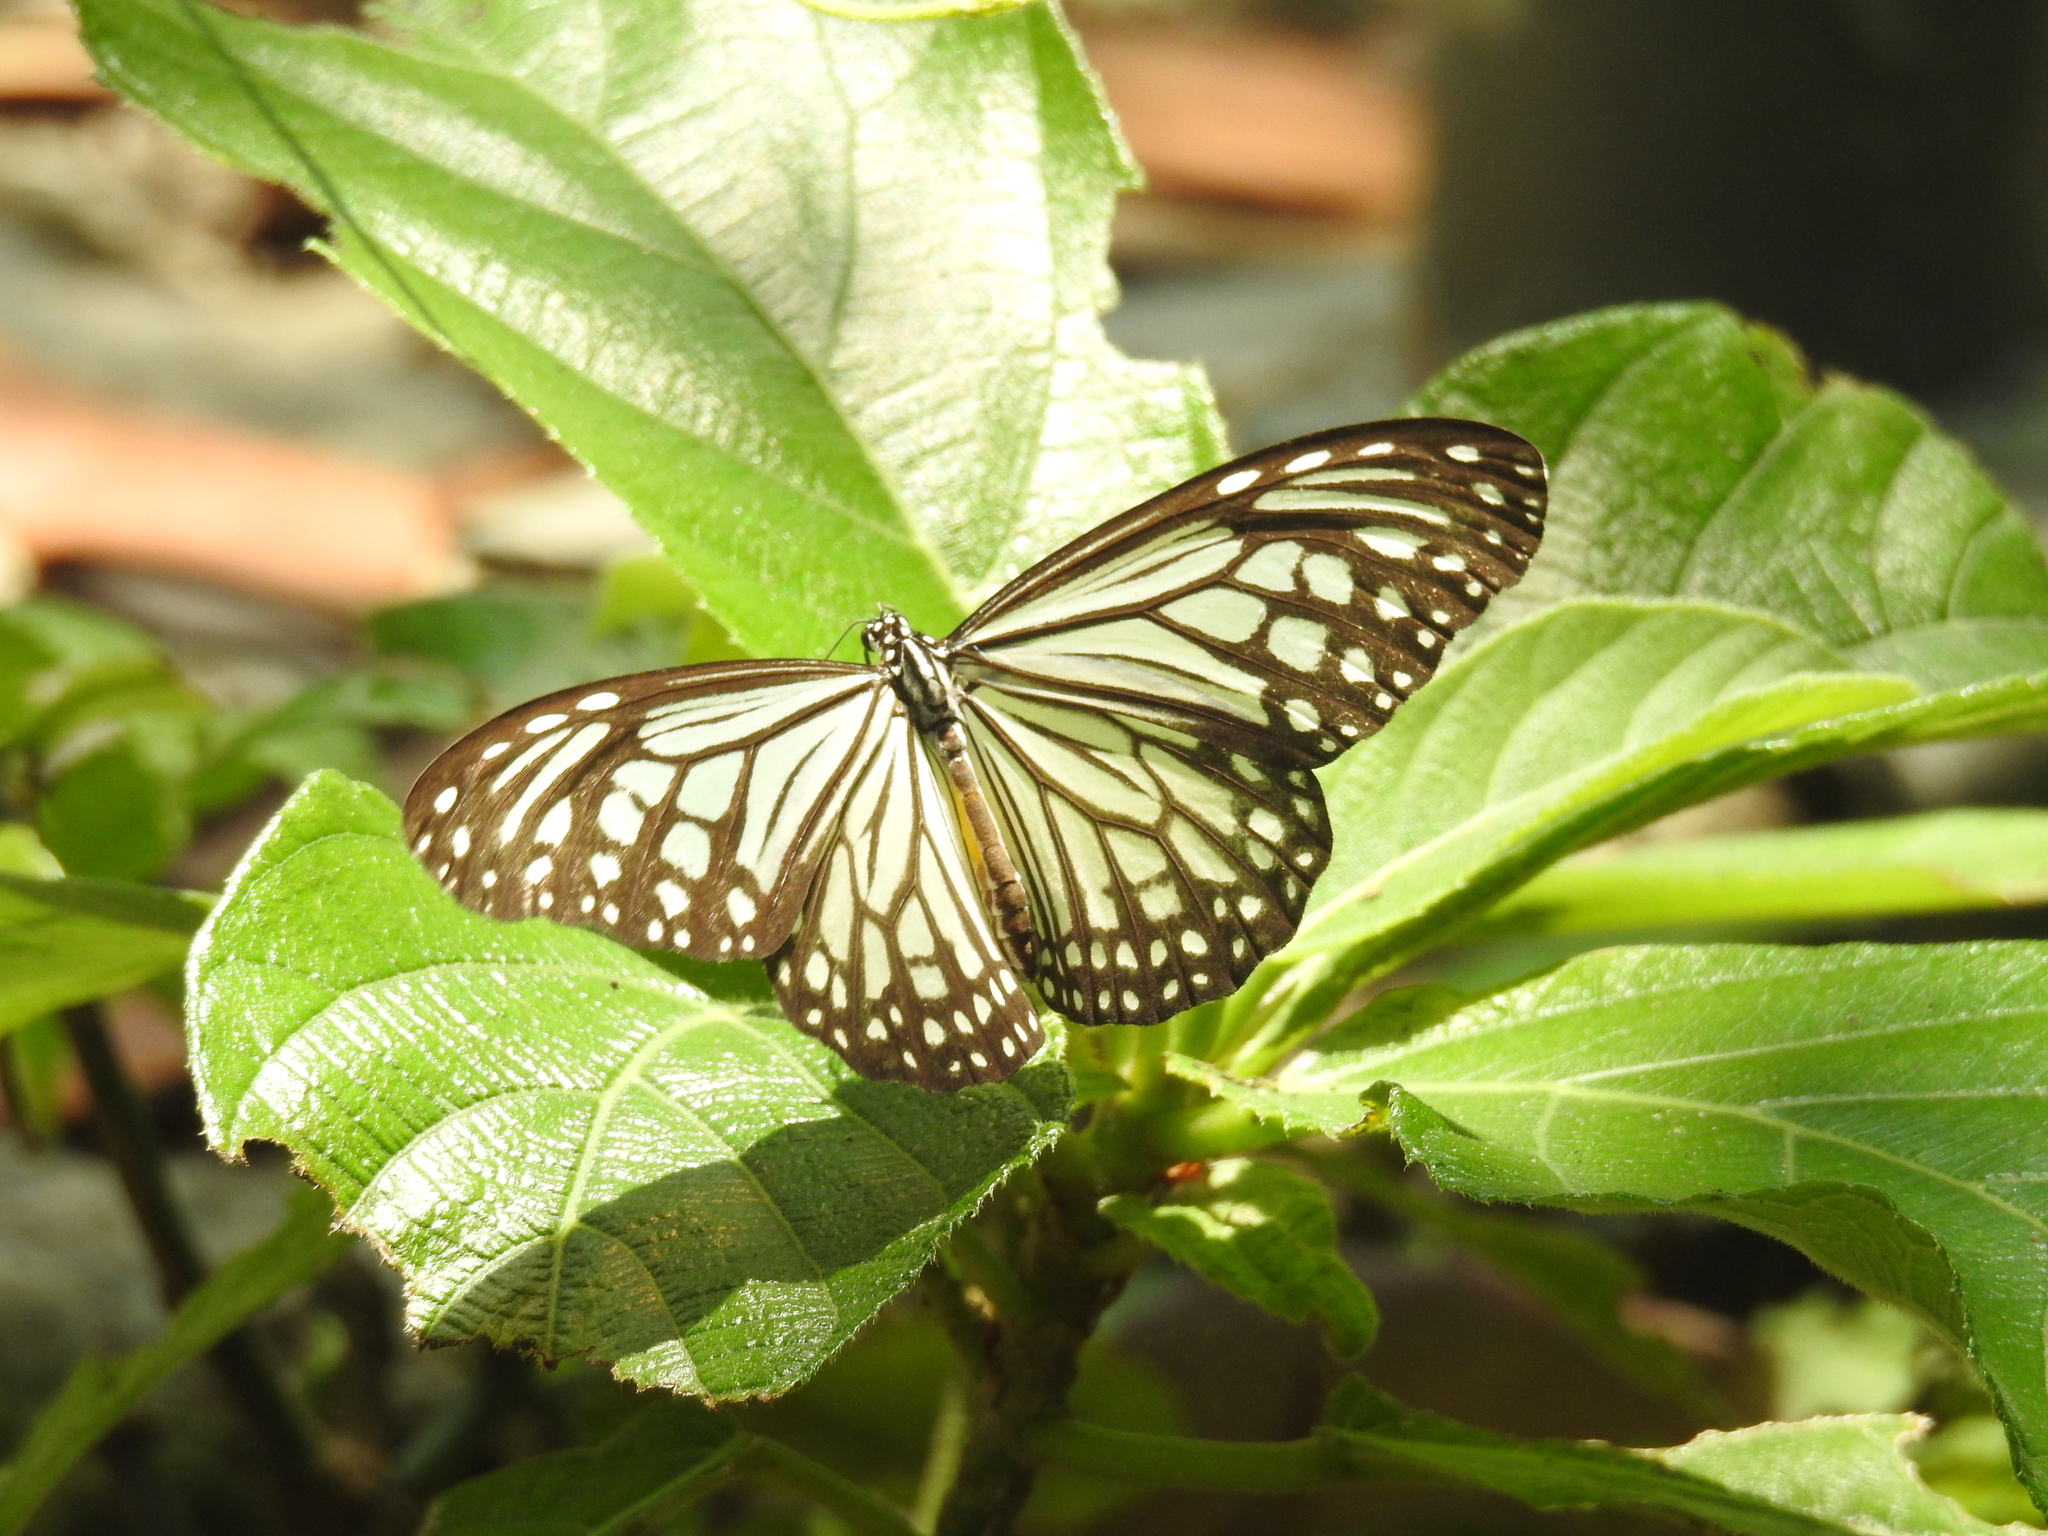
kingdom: Animalia
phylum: Arthropoda
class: Insecta
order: Lepidoptera
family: Nymphalidae
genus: Parantica
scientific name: Parantica aglea
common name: Glassy tiger
